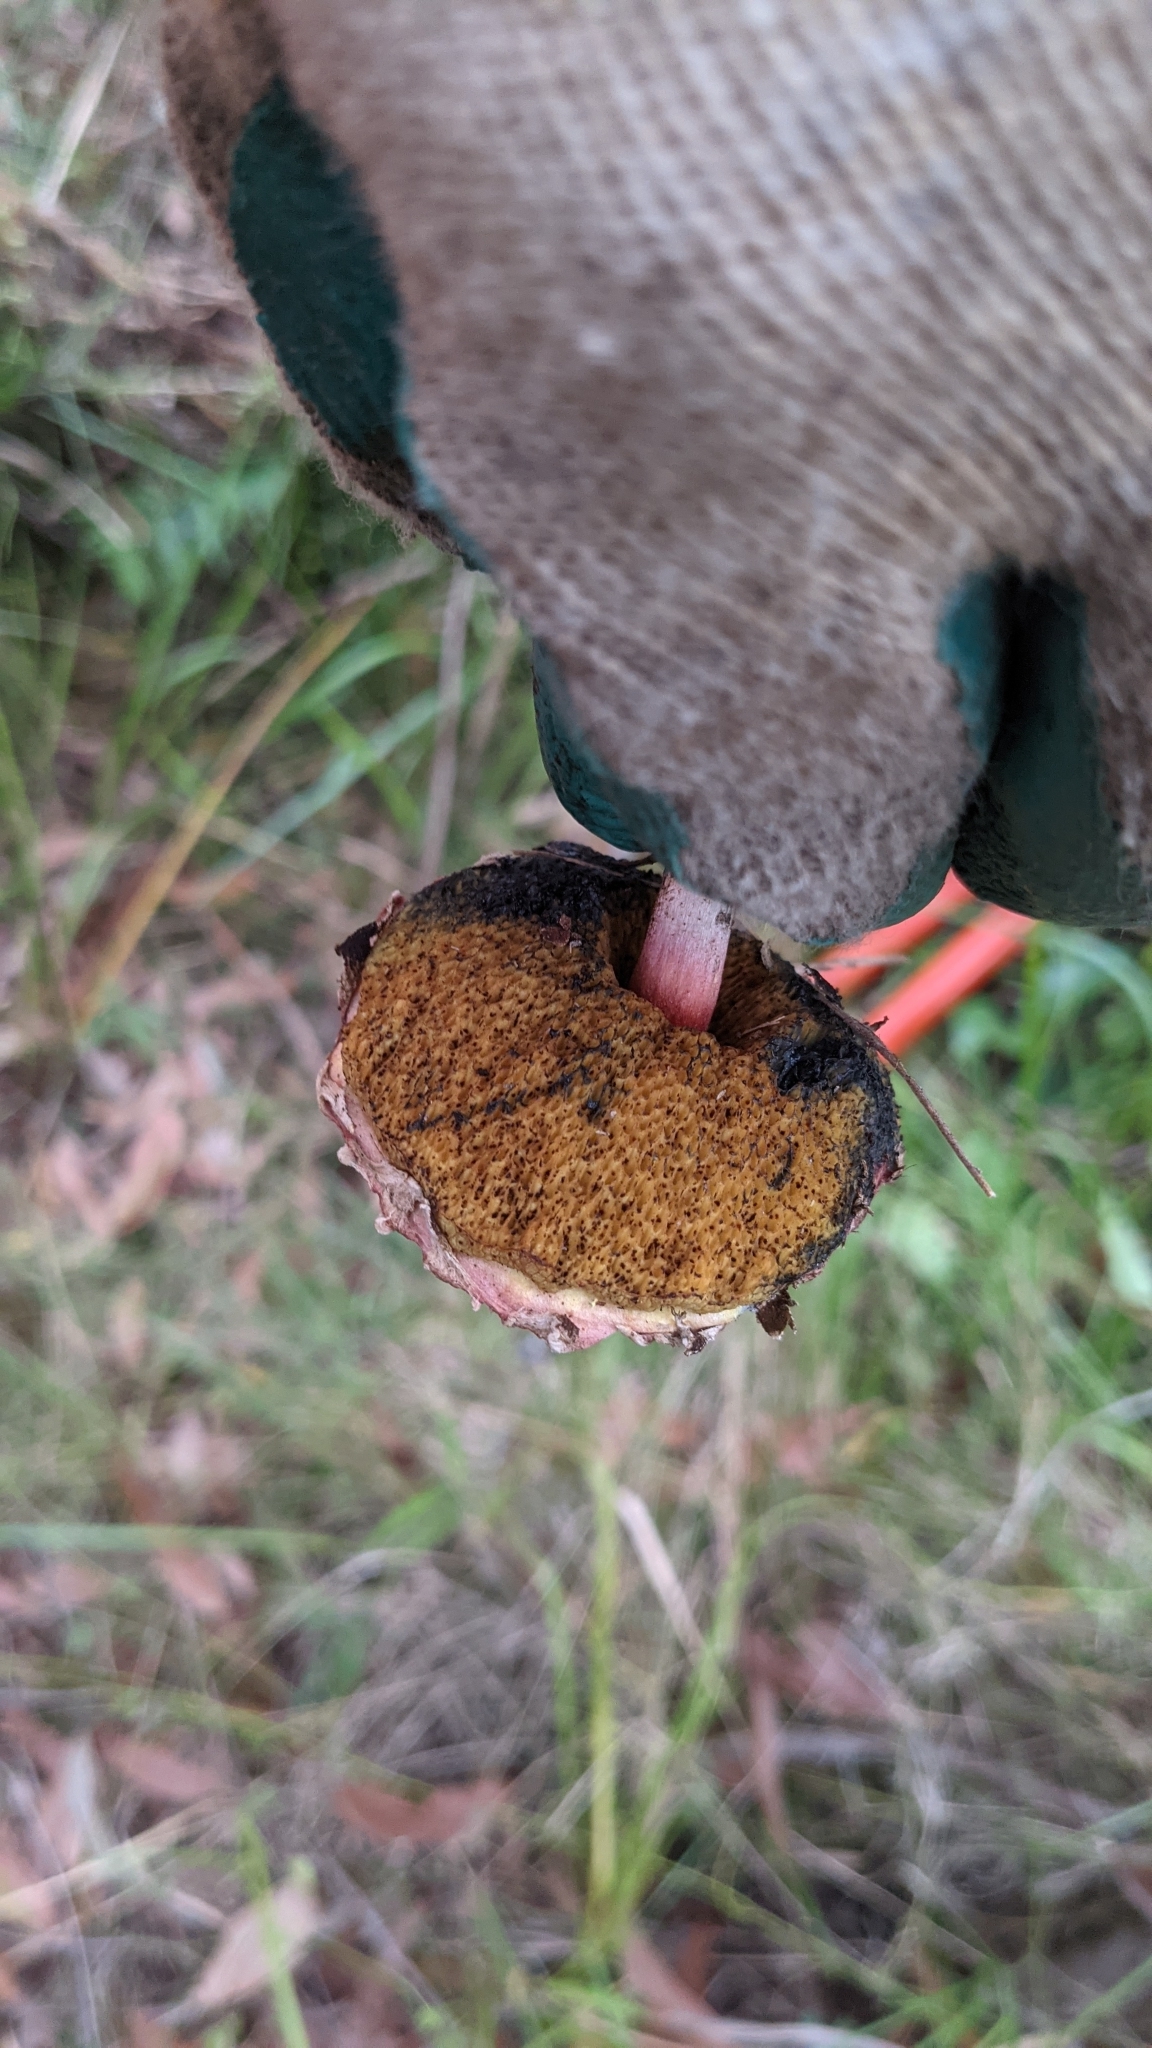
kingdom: Fungi
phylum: Basidiomycota
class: Agaricomycetes
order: Boletales
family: Boletaceae
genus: Boletellus
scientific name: Boletellus emodensis
